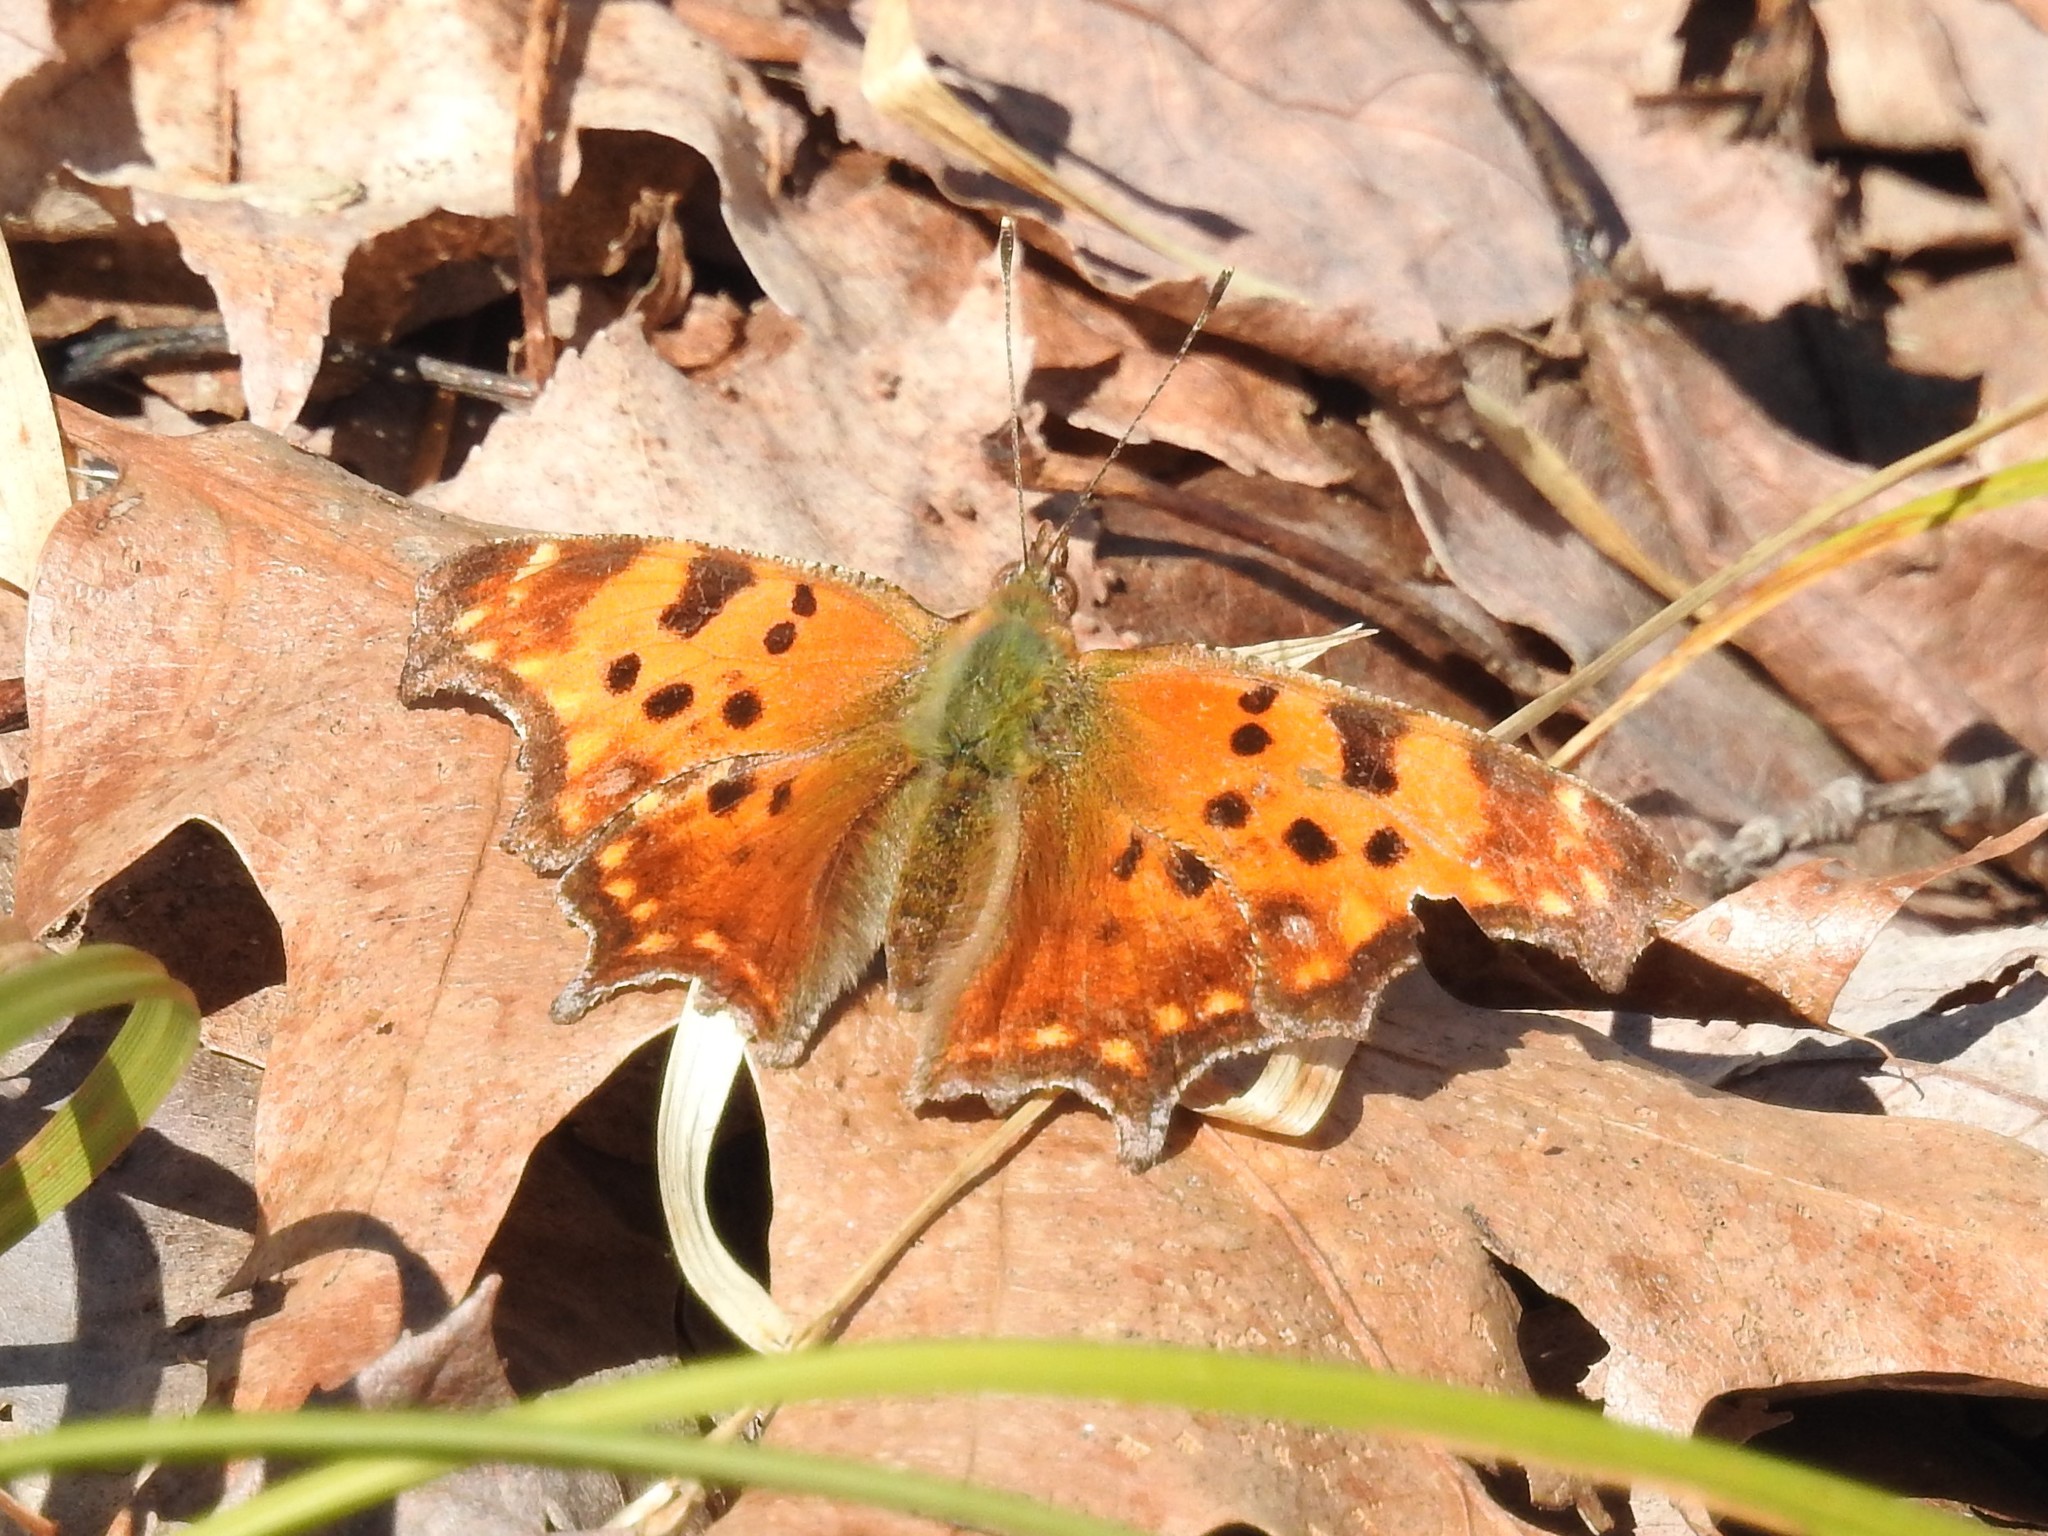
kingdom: Animalia
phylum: Arthropoda
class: Insecta
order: Lepidoptera
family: Nymphalidae
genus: Polygonia
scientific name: Polygonia comma
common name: Eastern comma
